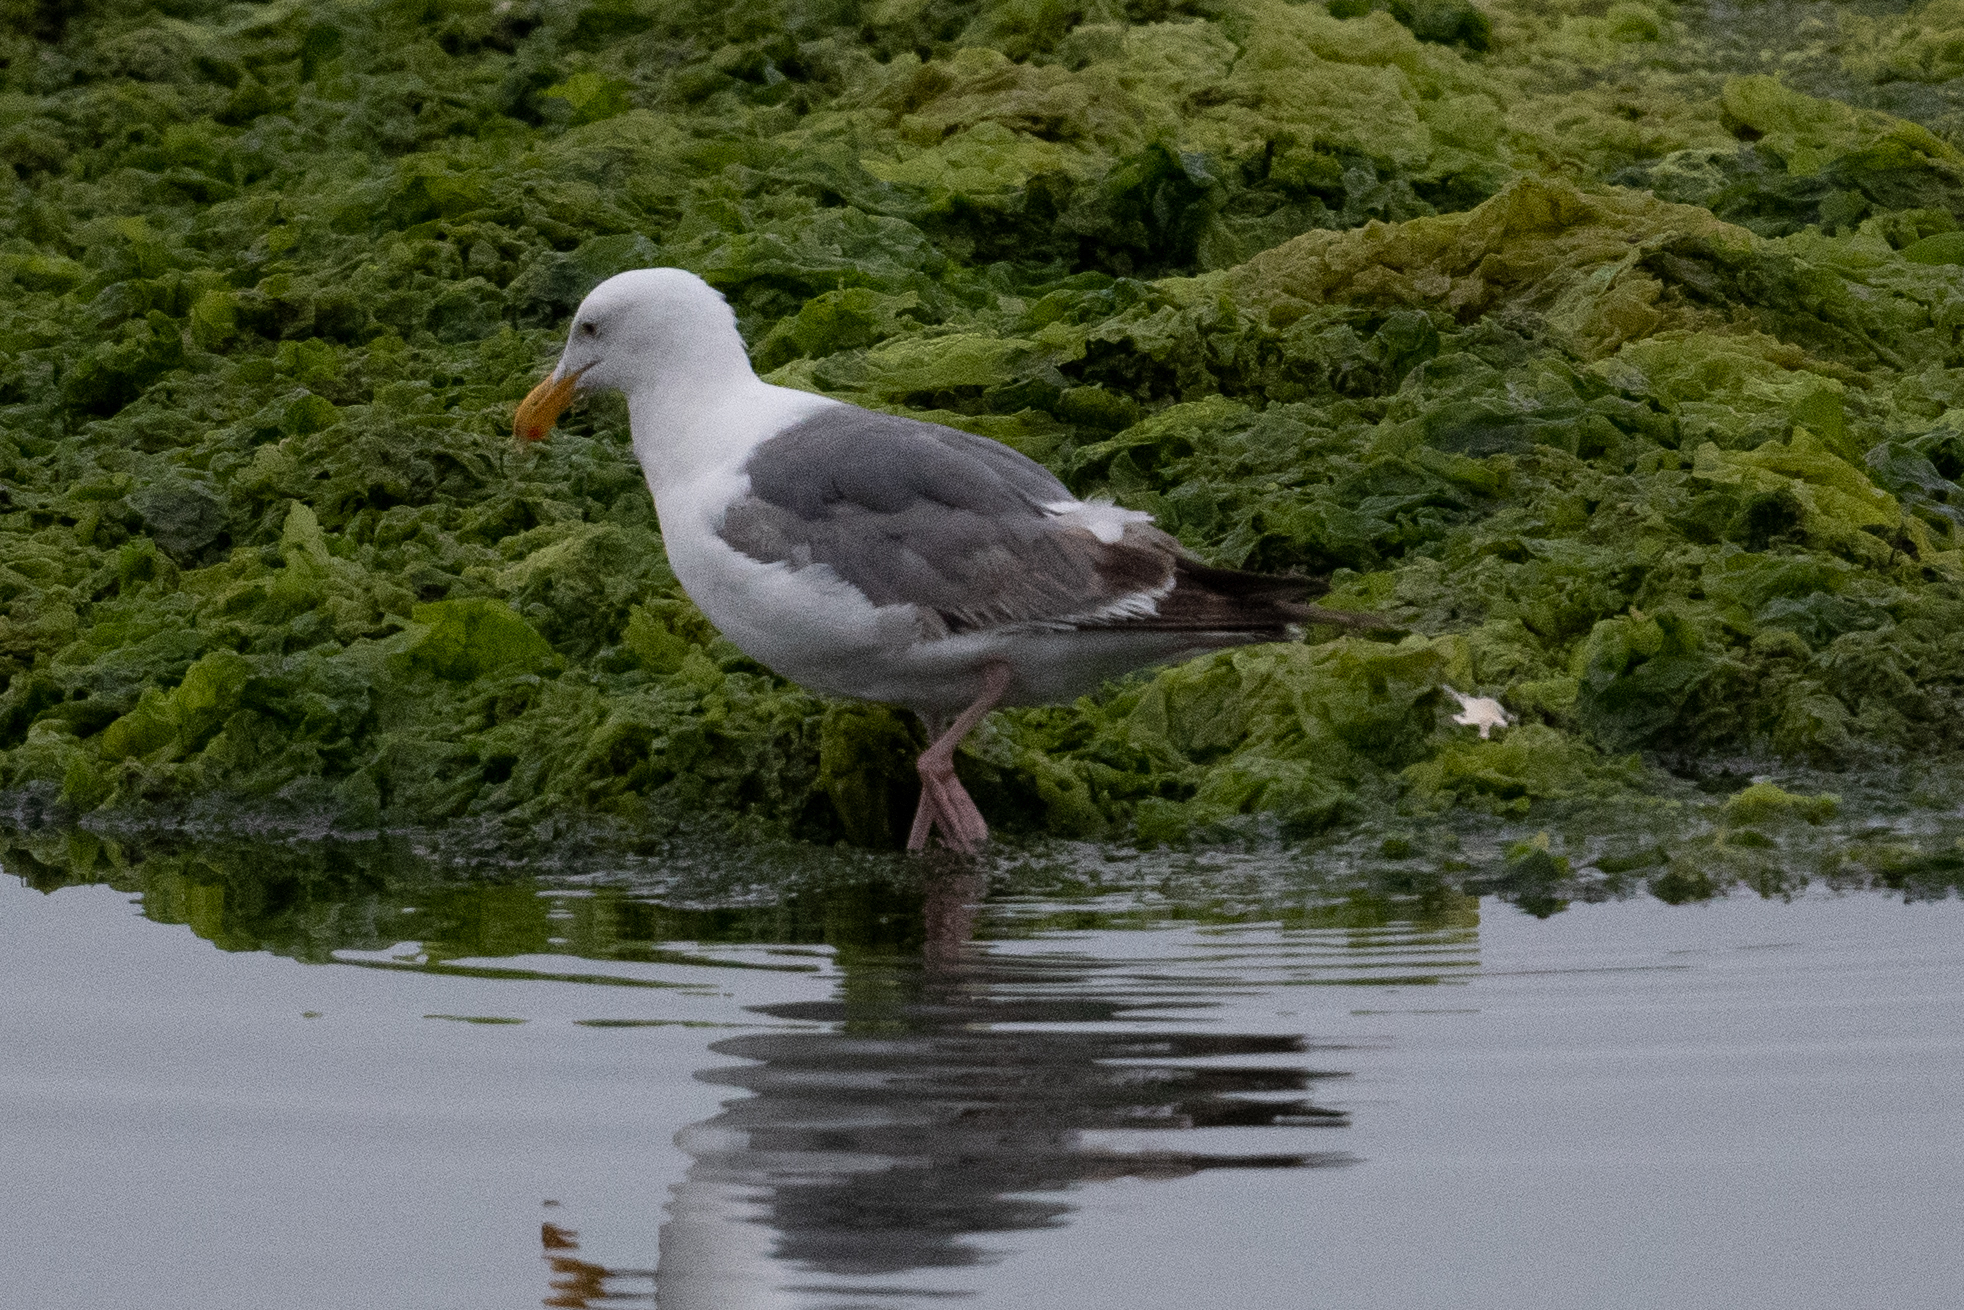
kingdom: Animalia
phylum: Chordata
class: Aves
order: Charadriiformes
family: Laridae
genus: Larus
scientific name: Larus occidentalis
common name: Western gull
